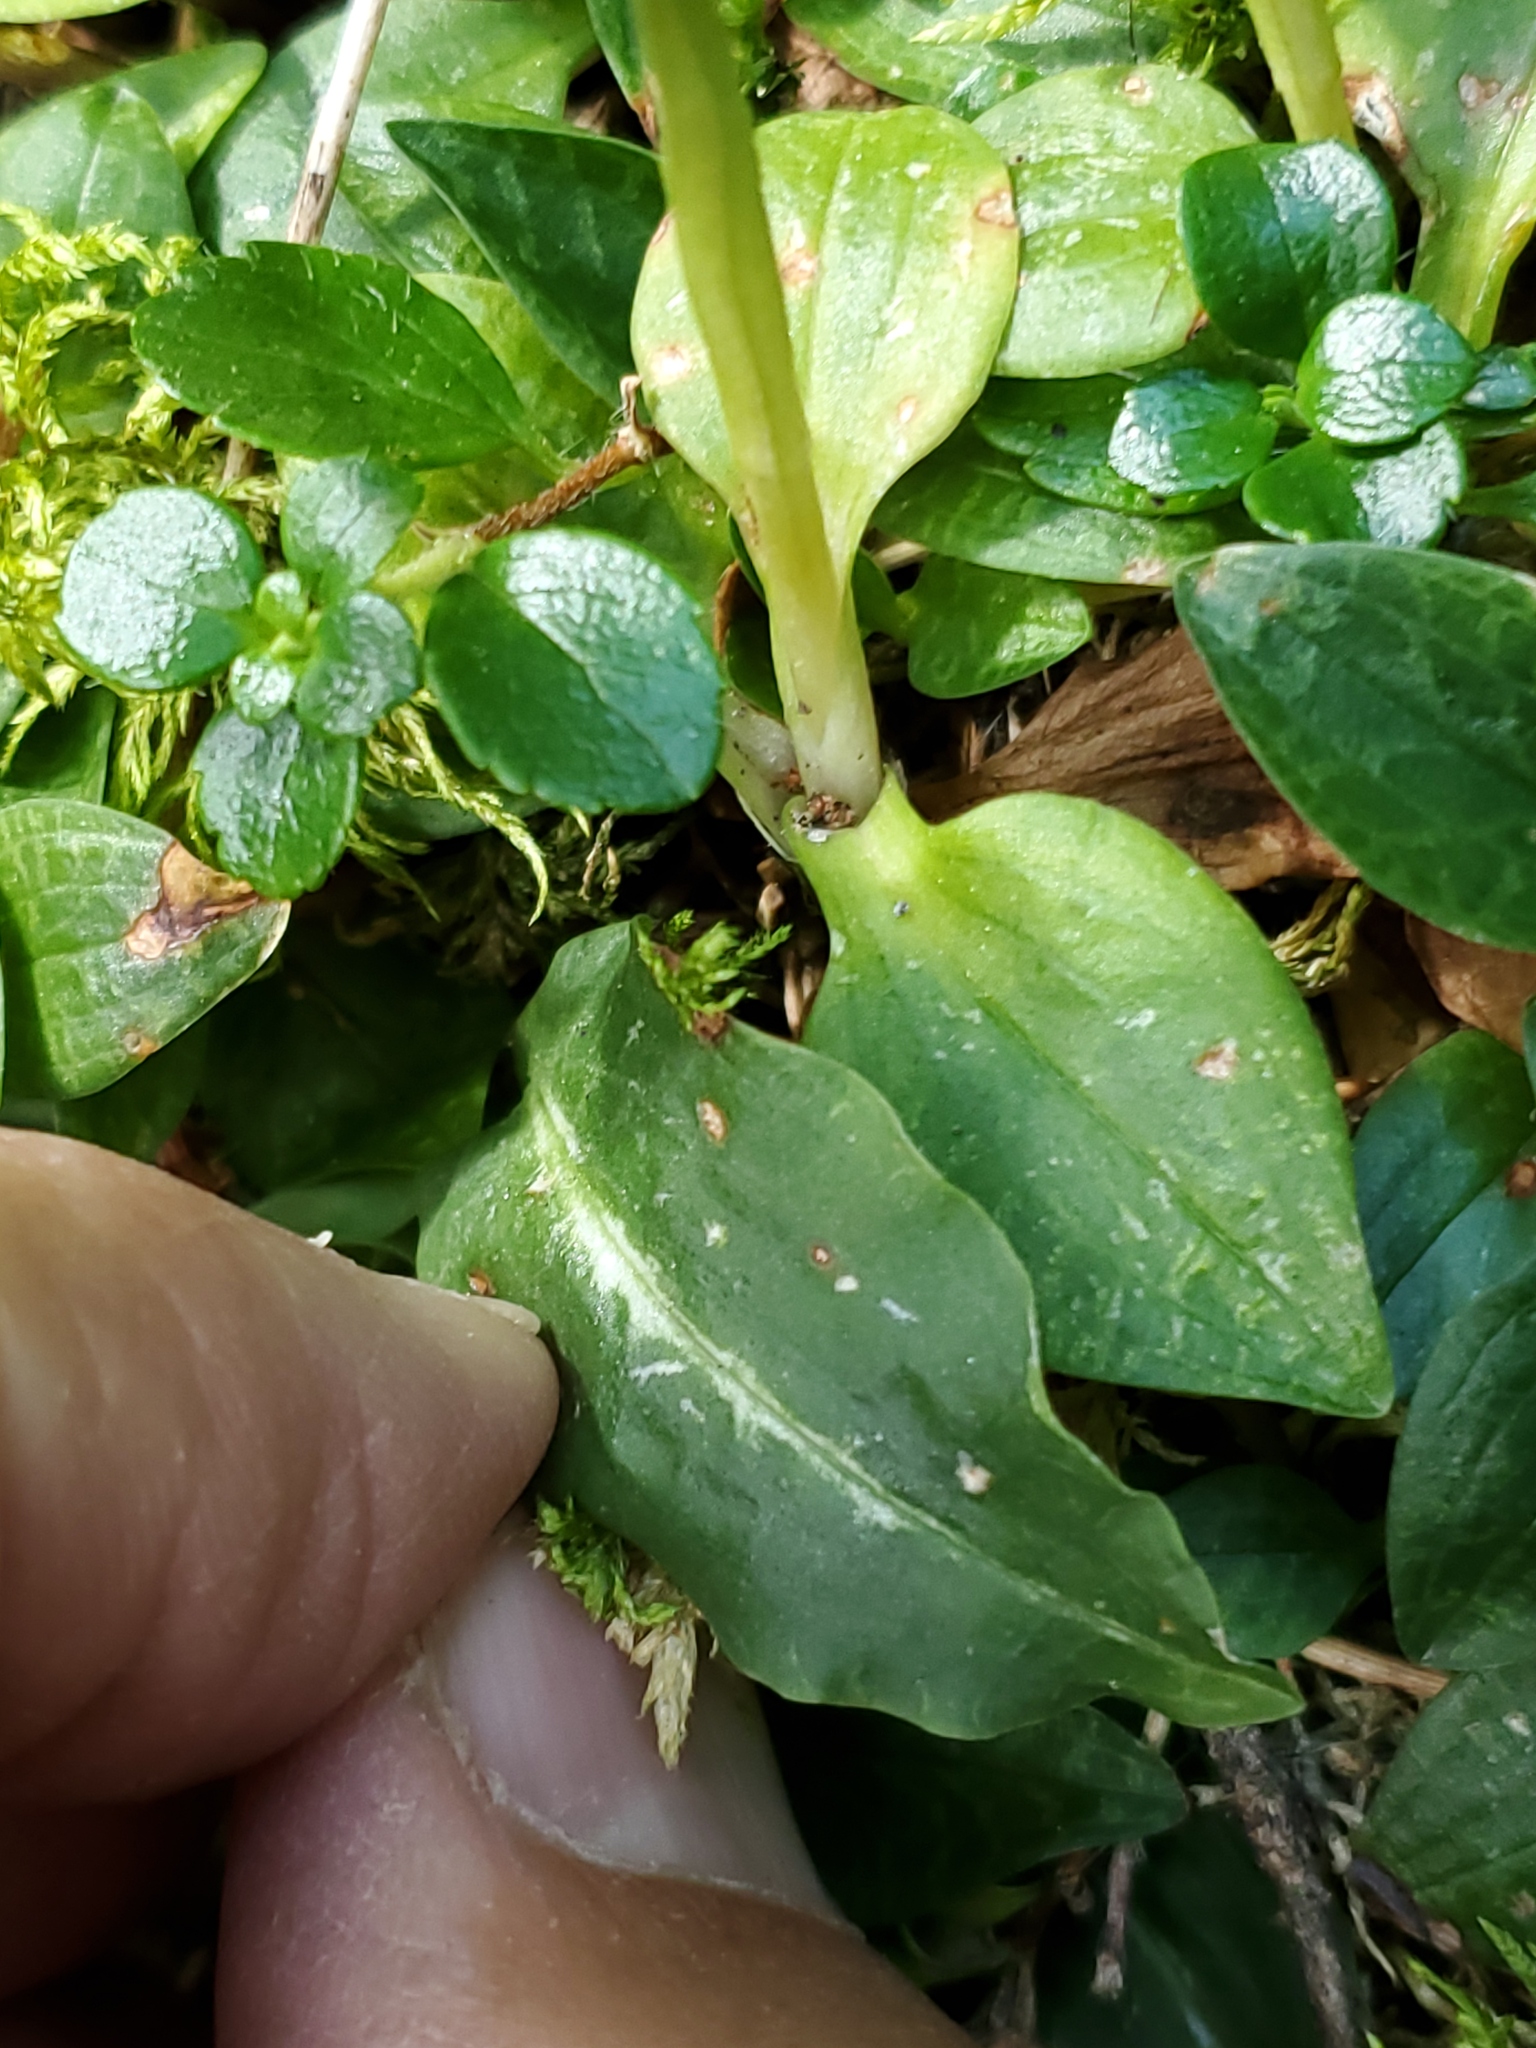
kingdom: Plantae
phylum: Tracheophyta
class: Liliopsida
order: Asparagales
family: Orchidaceae
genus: Goodyera
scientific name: Goodyera oblongifolia
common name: Giant rattlesnake-plantain
